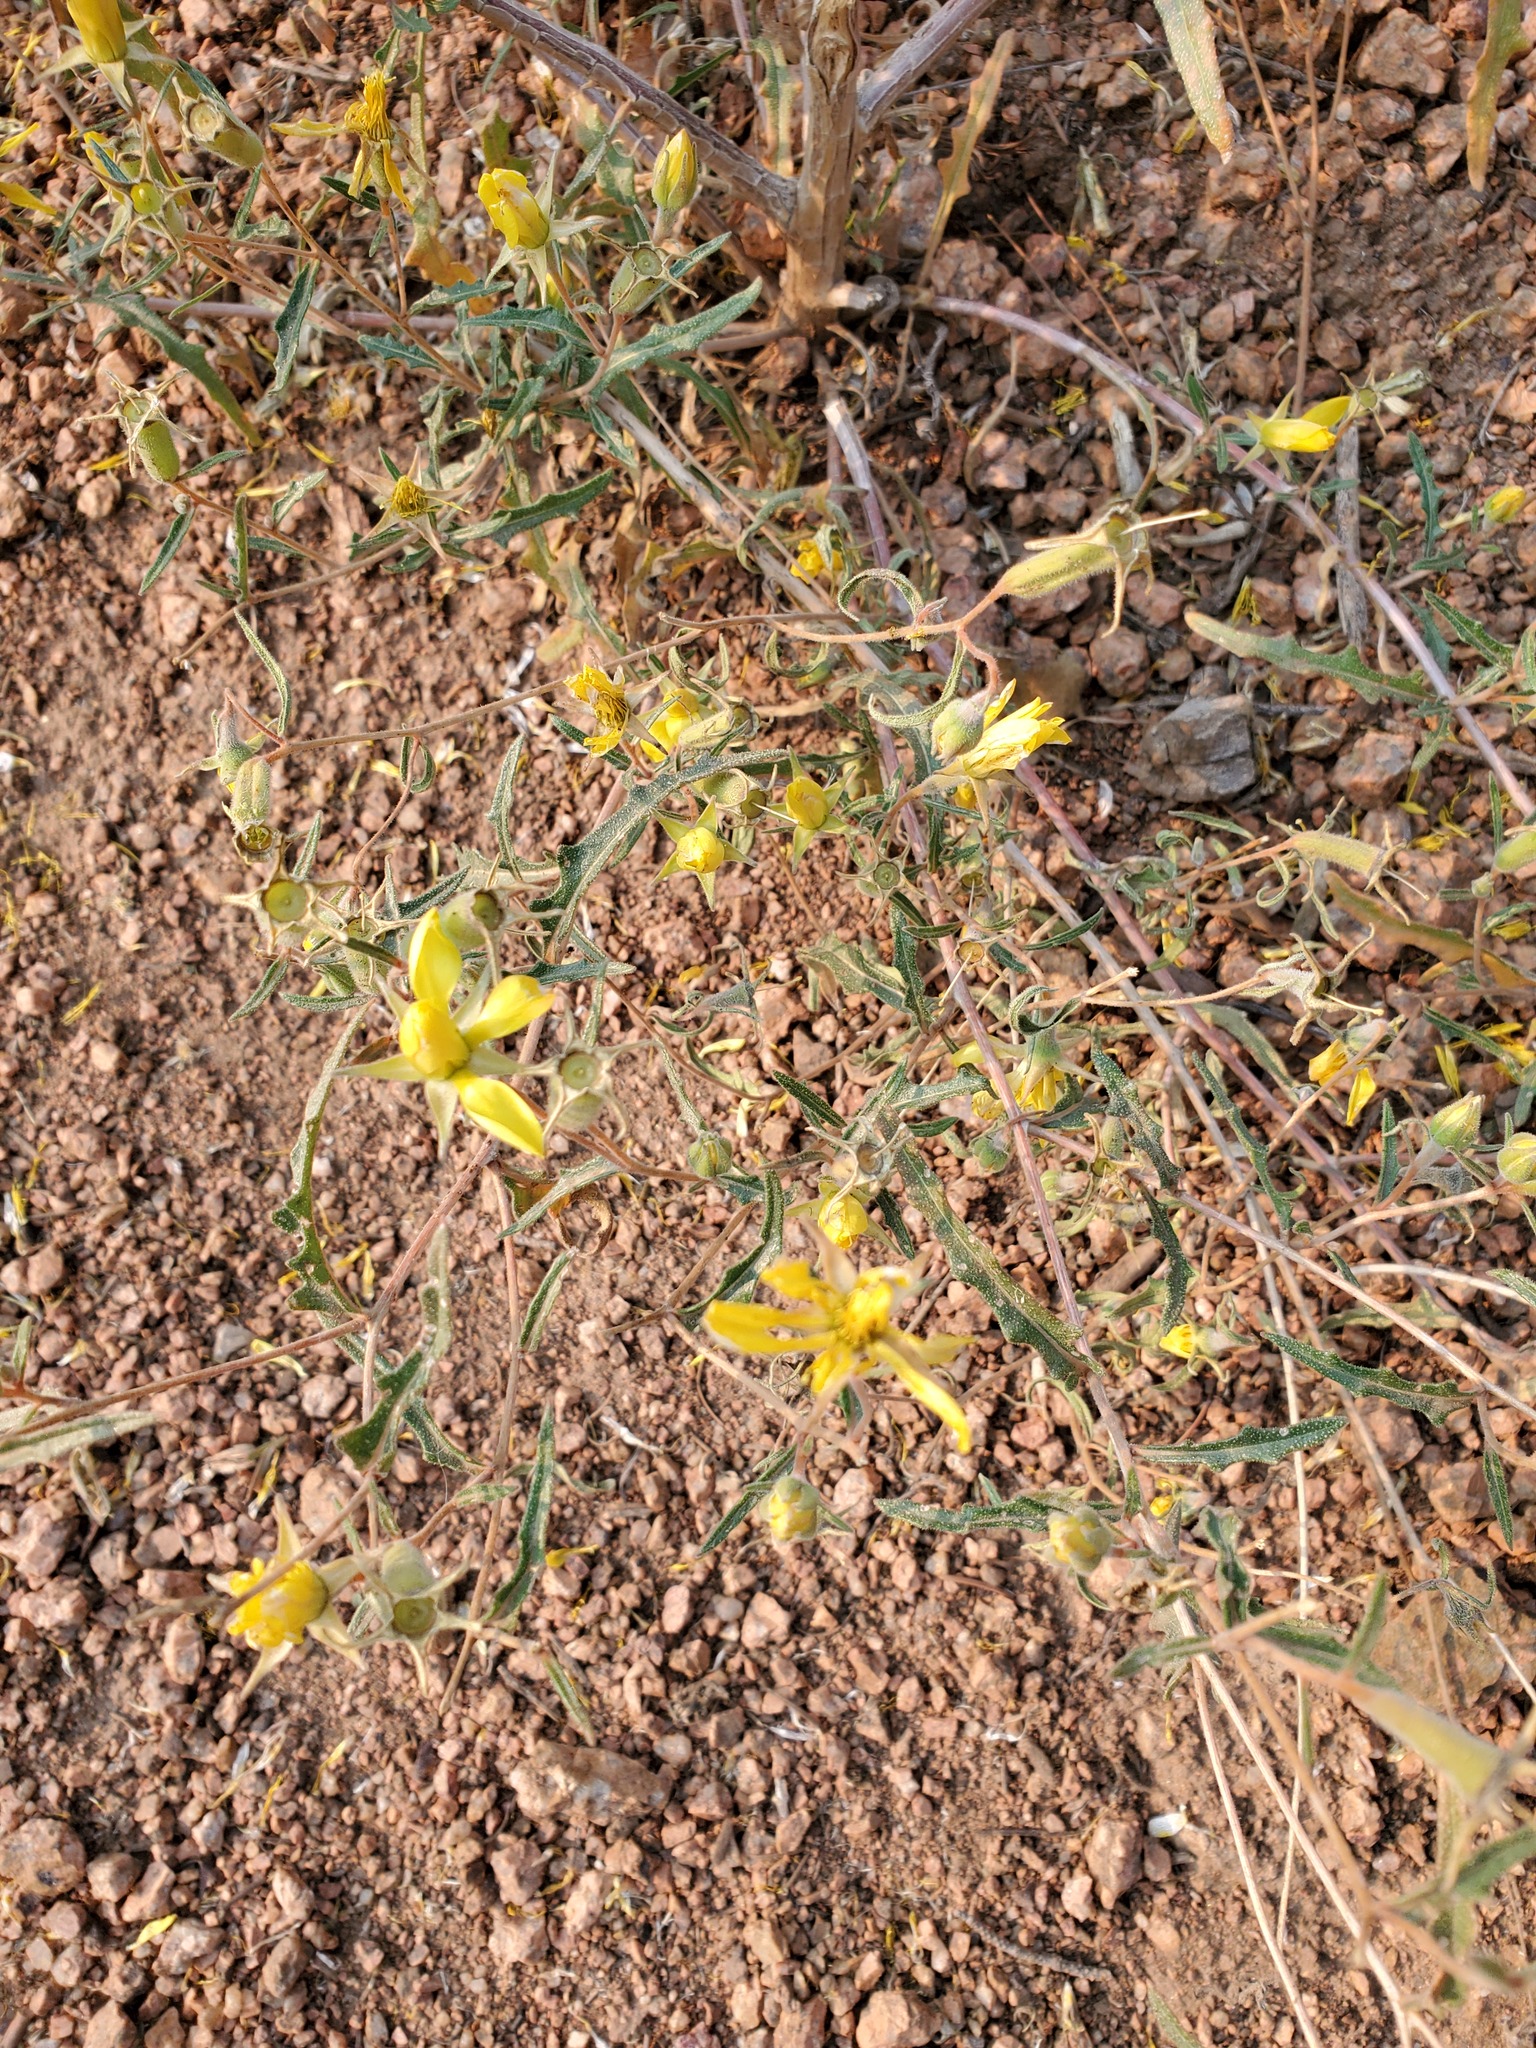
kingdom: Plantae
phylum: Tracheophyta
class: Magnoliopsida
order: Cornales
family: Loasaceae
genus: Mentzelia
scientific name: Mentzelia speciosa
